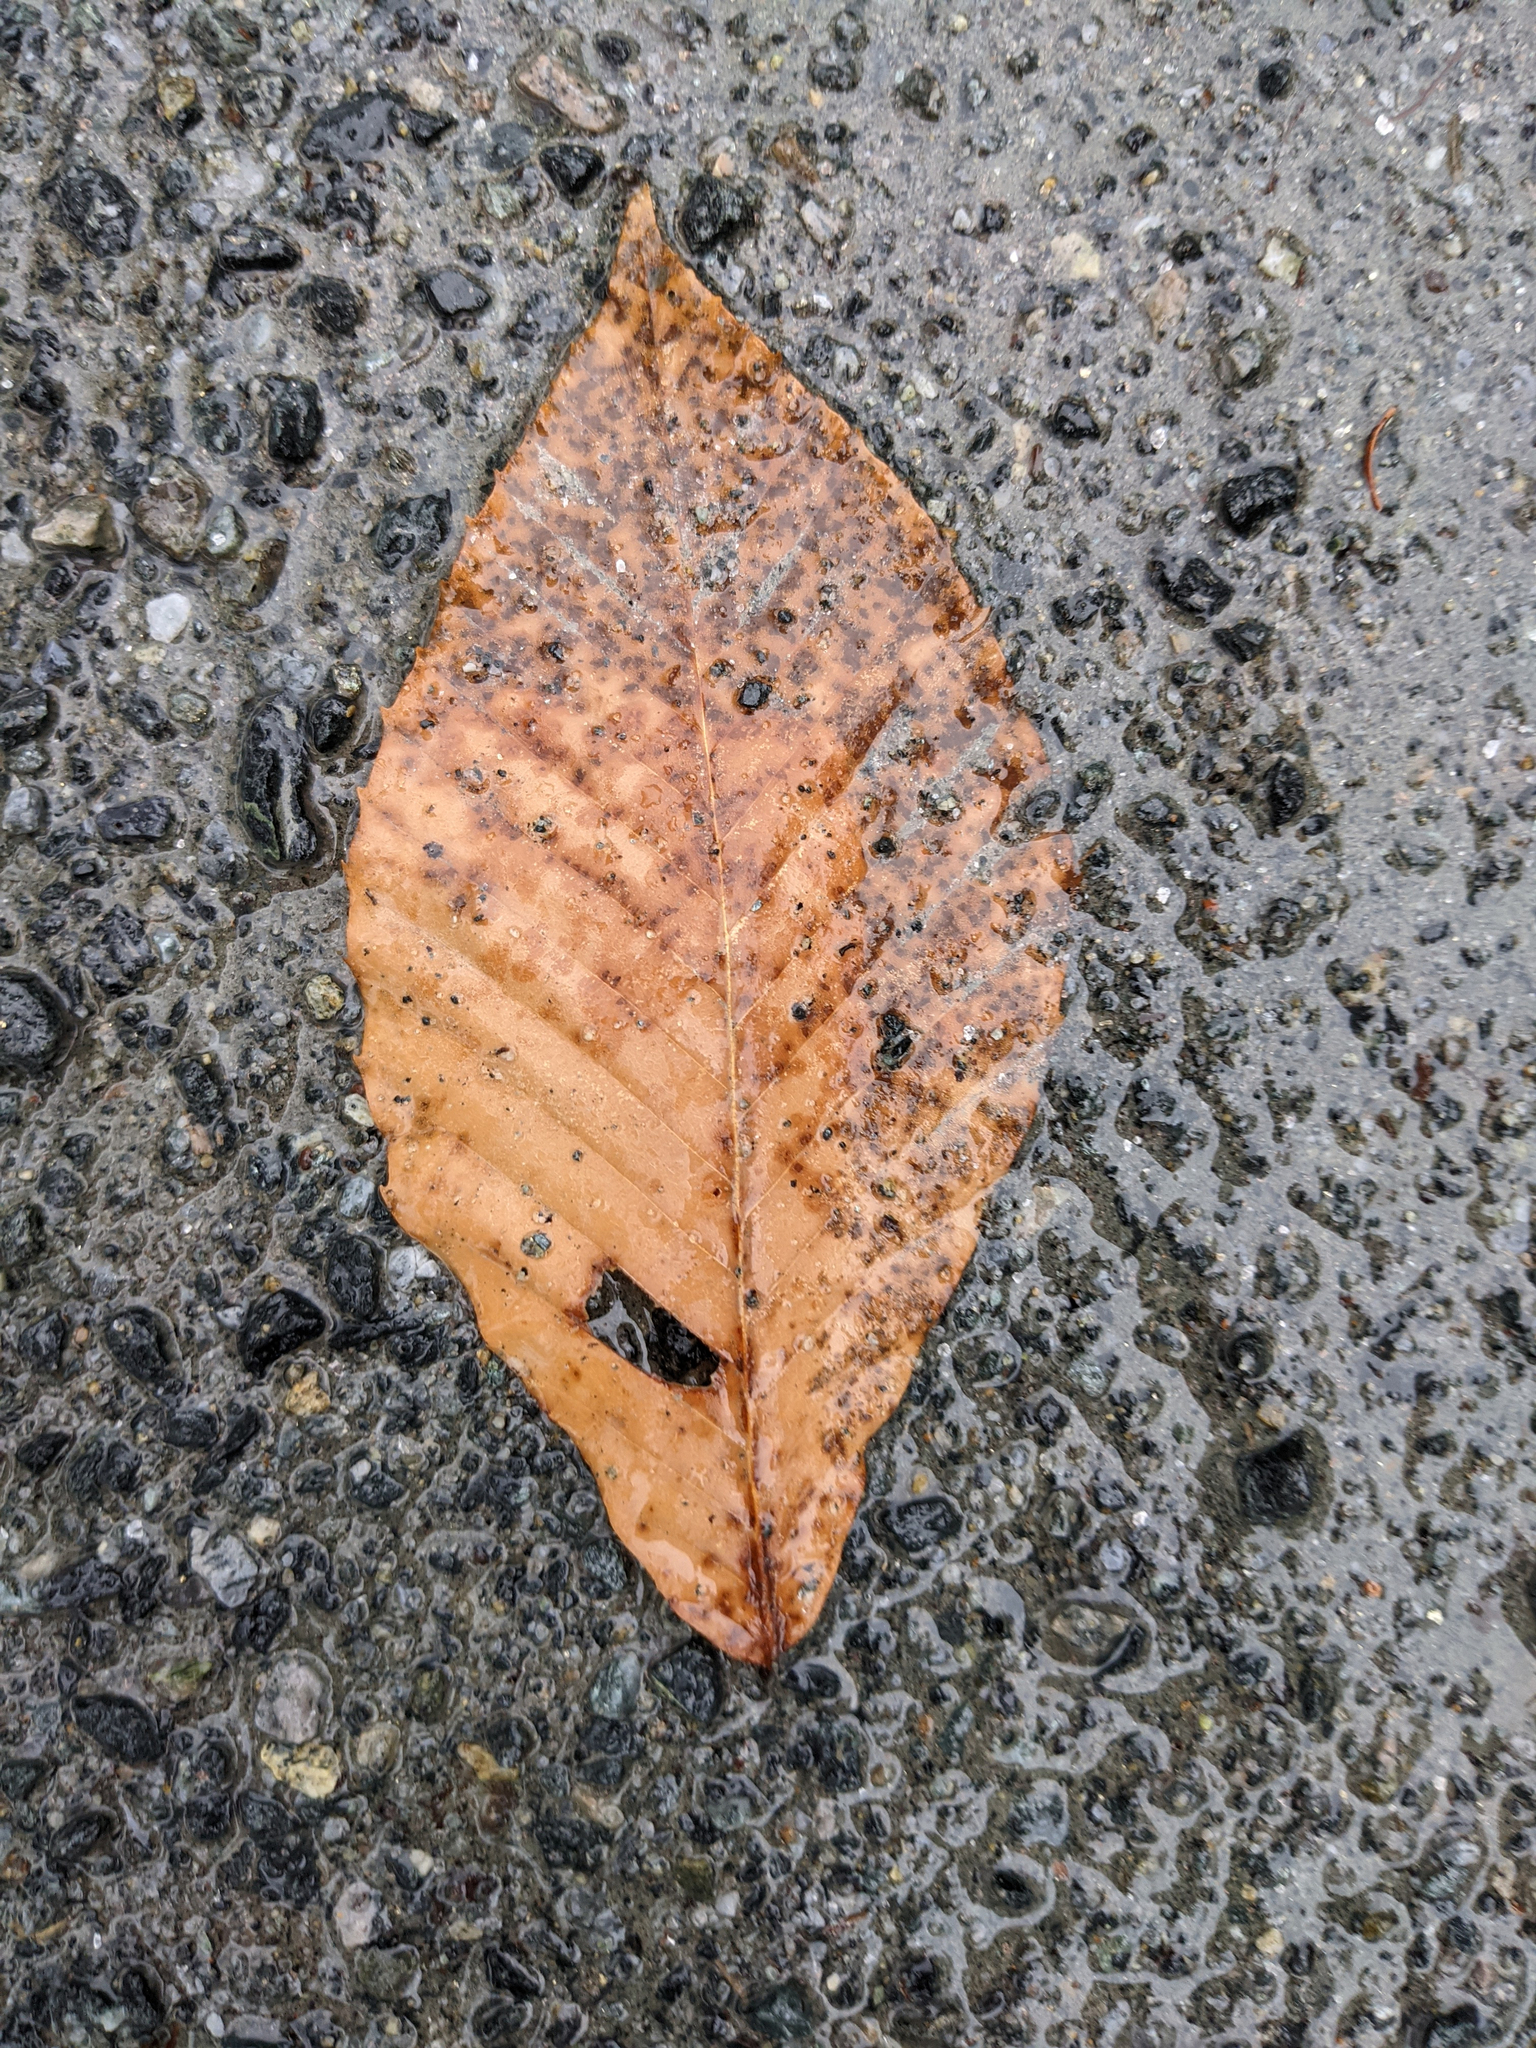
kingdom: Plantae
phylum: Tracheophyta
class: Magnoliopsida
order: Fagales
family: Fagaceae
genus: Fagus
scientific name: Fagus grandifolia
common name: American beech
